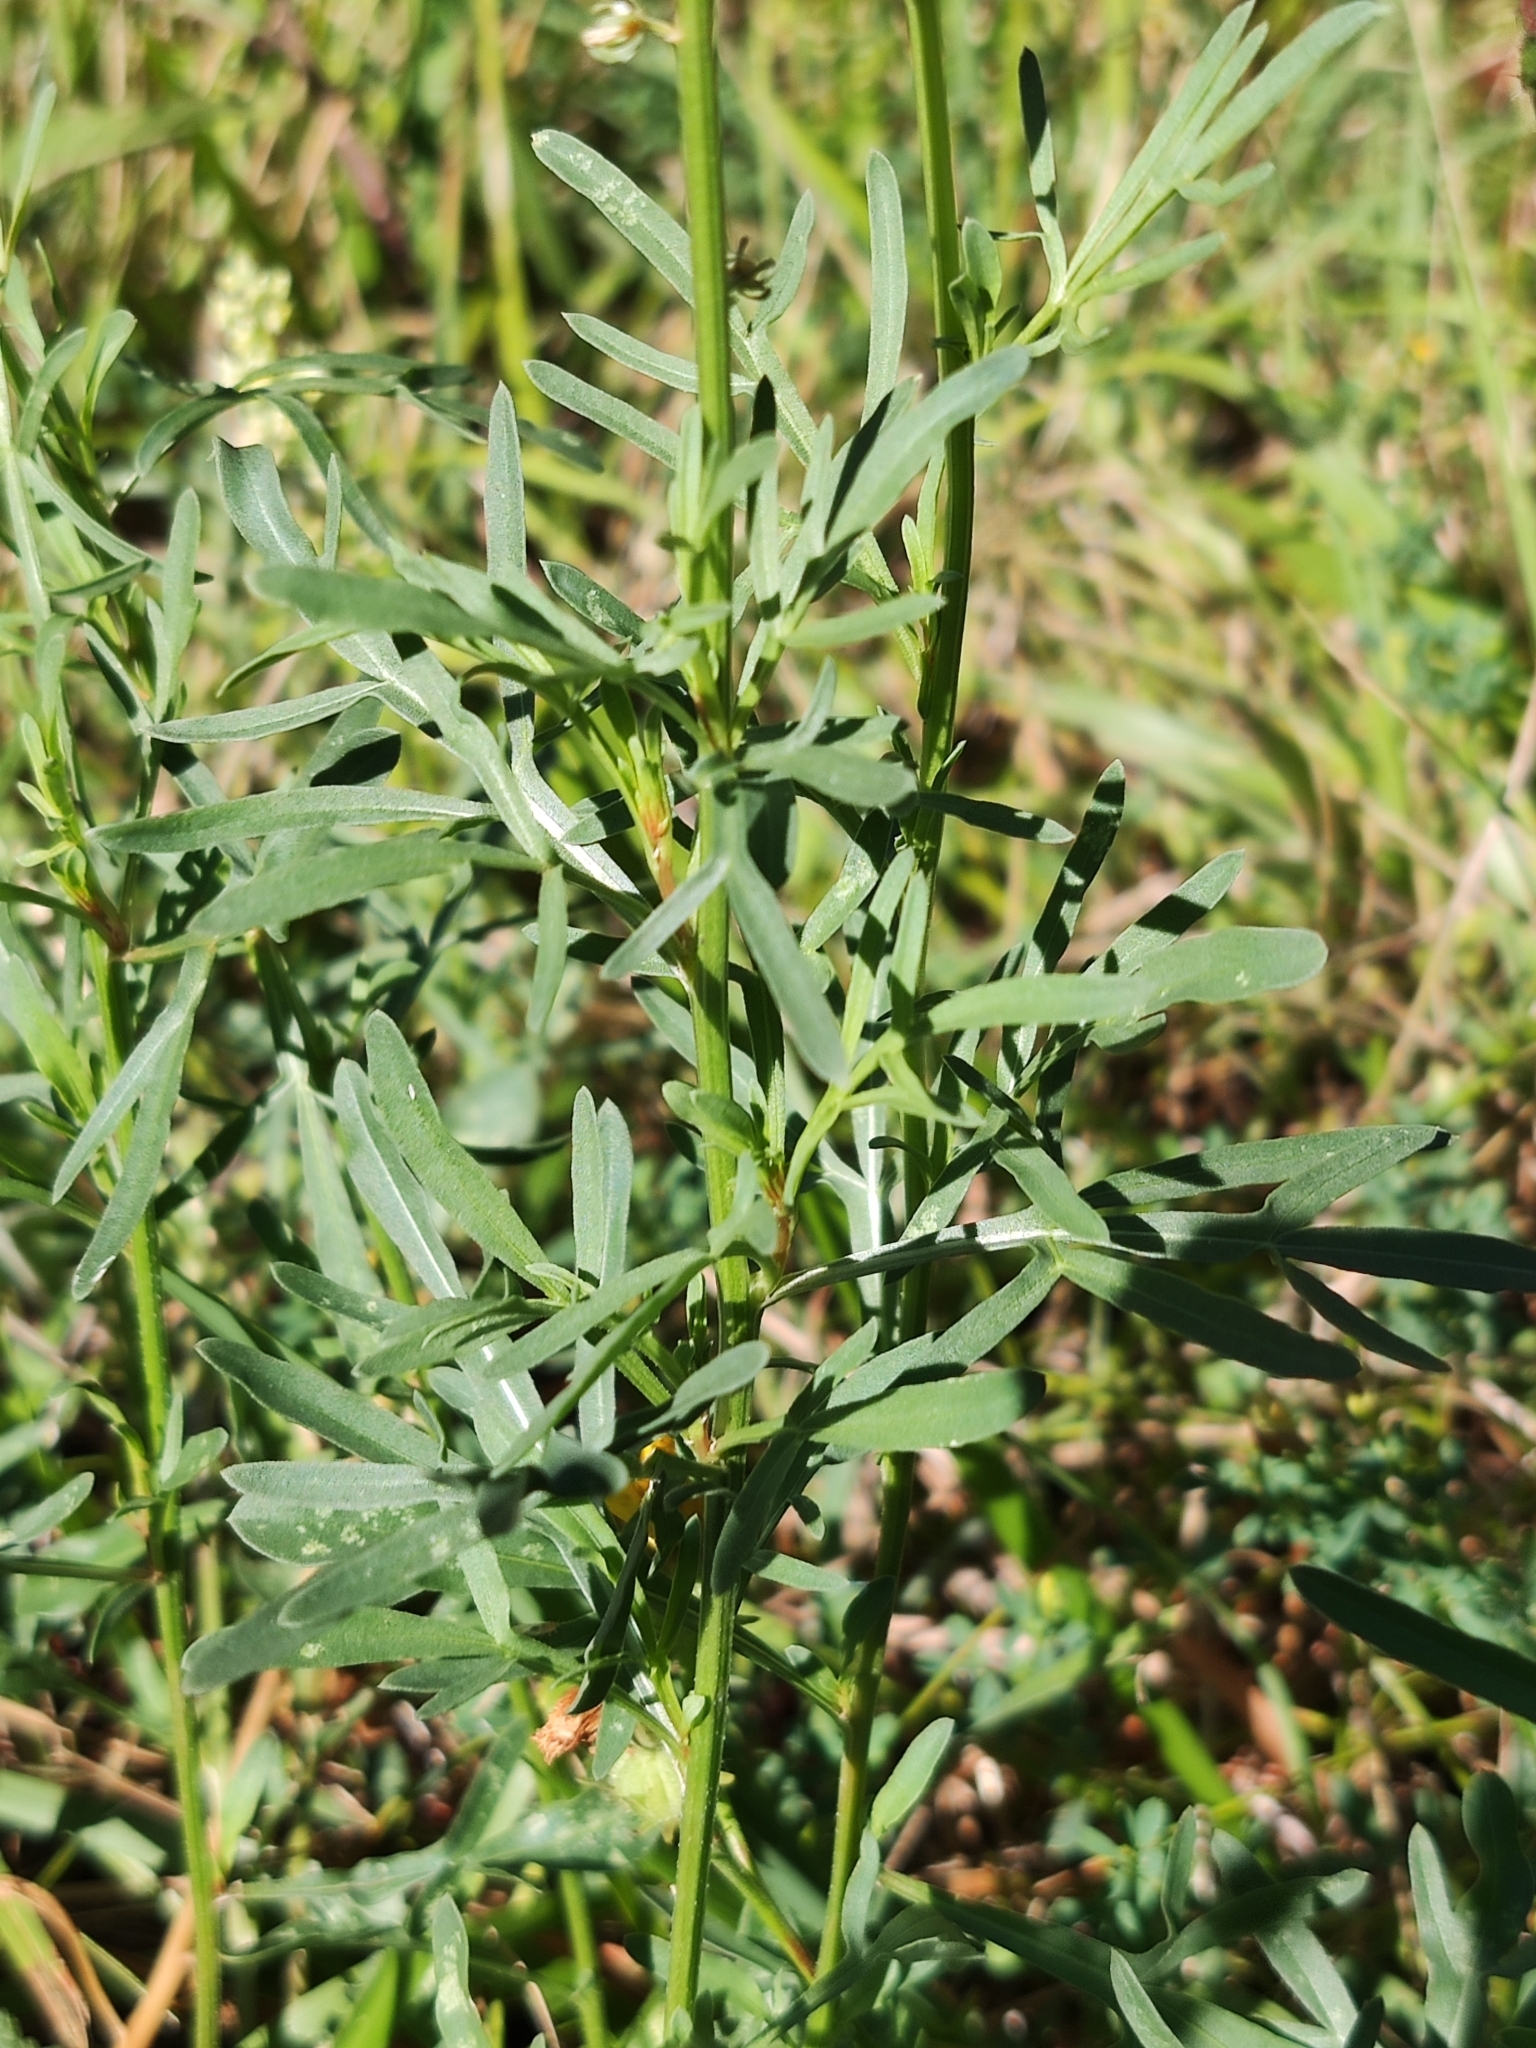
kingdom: Plantae
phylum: Tracheophyta
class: Magnoliopsida
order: Brassicales
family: Resedaceae
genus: Reseda
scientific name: Reseda lutea
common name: Wild mignonette
